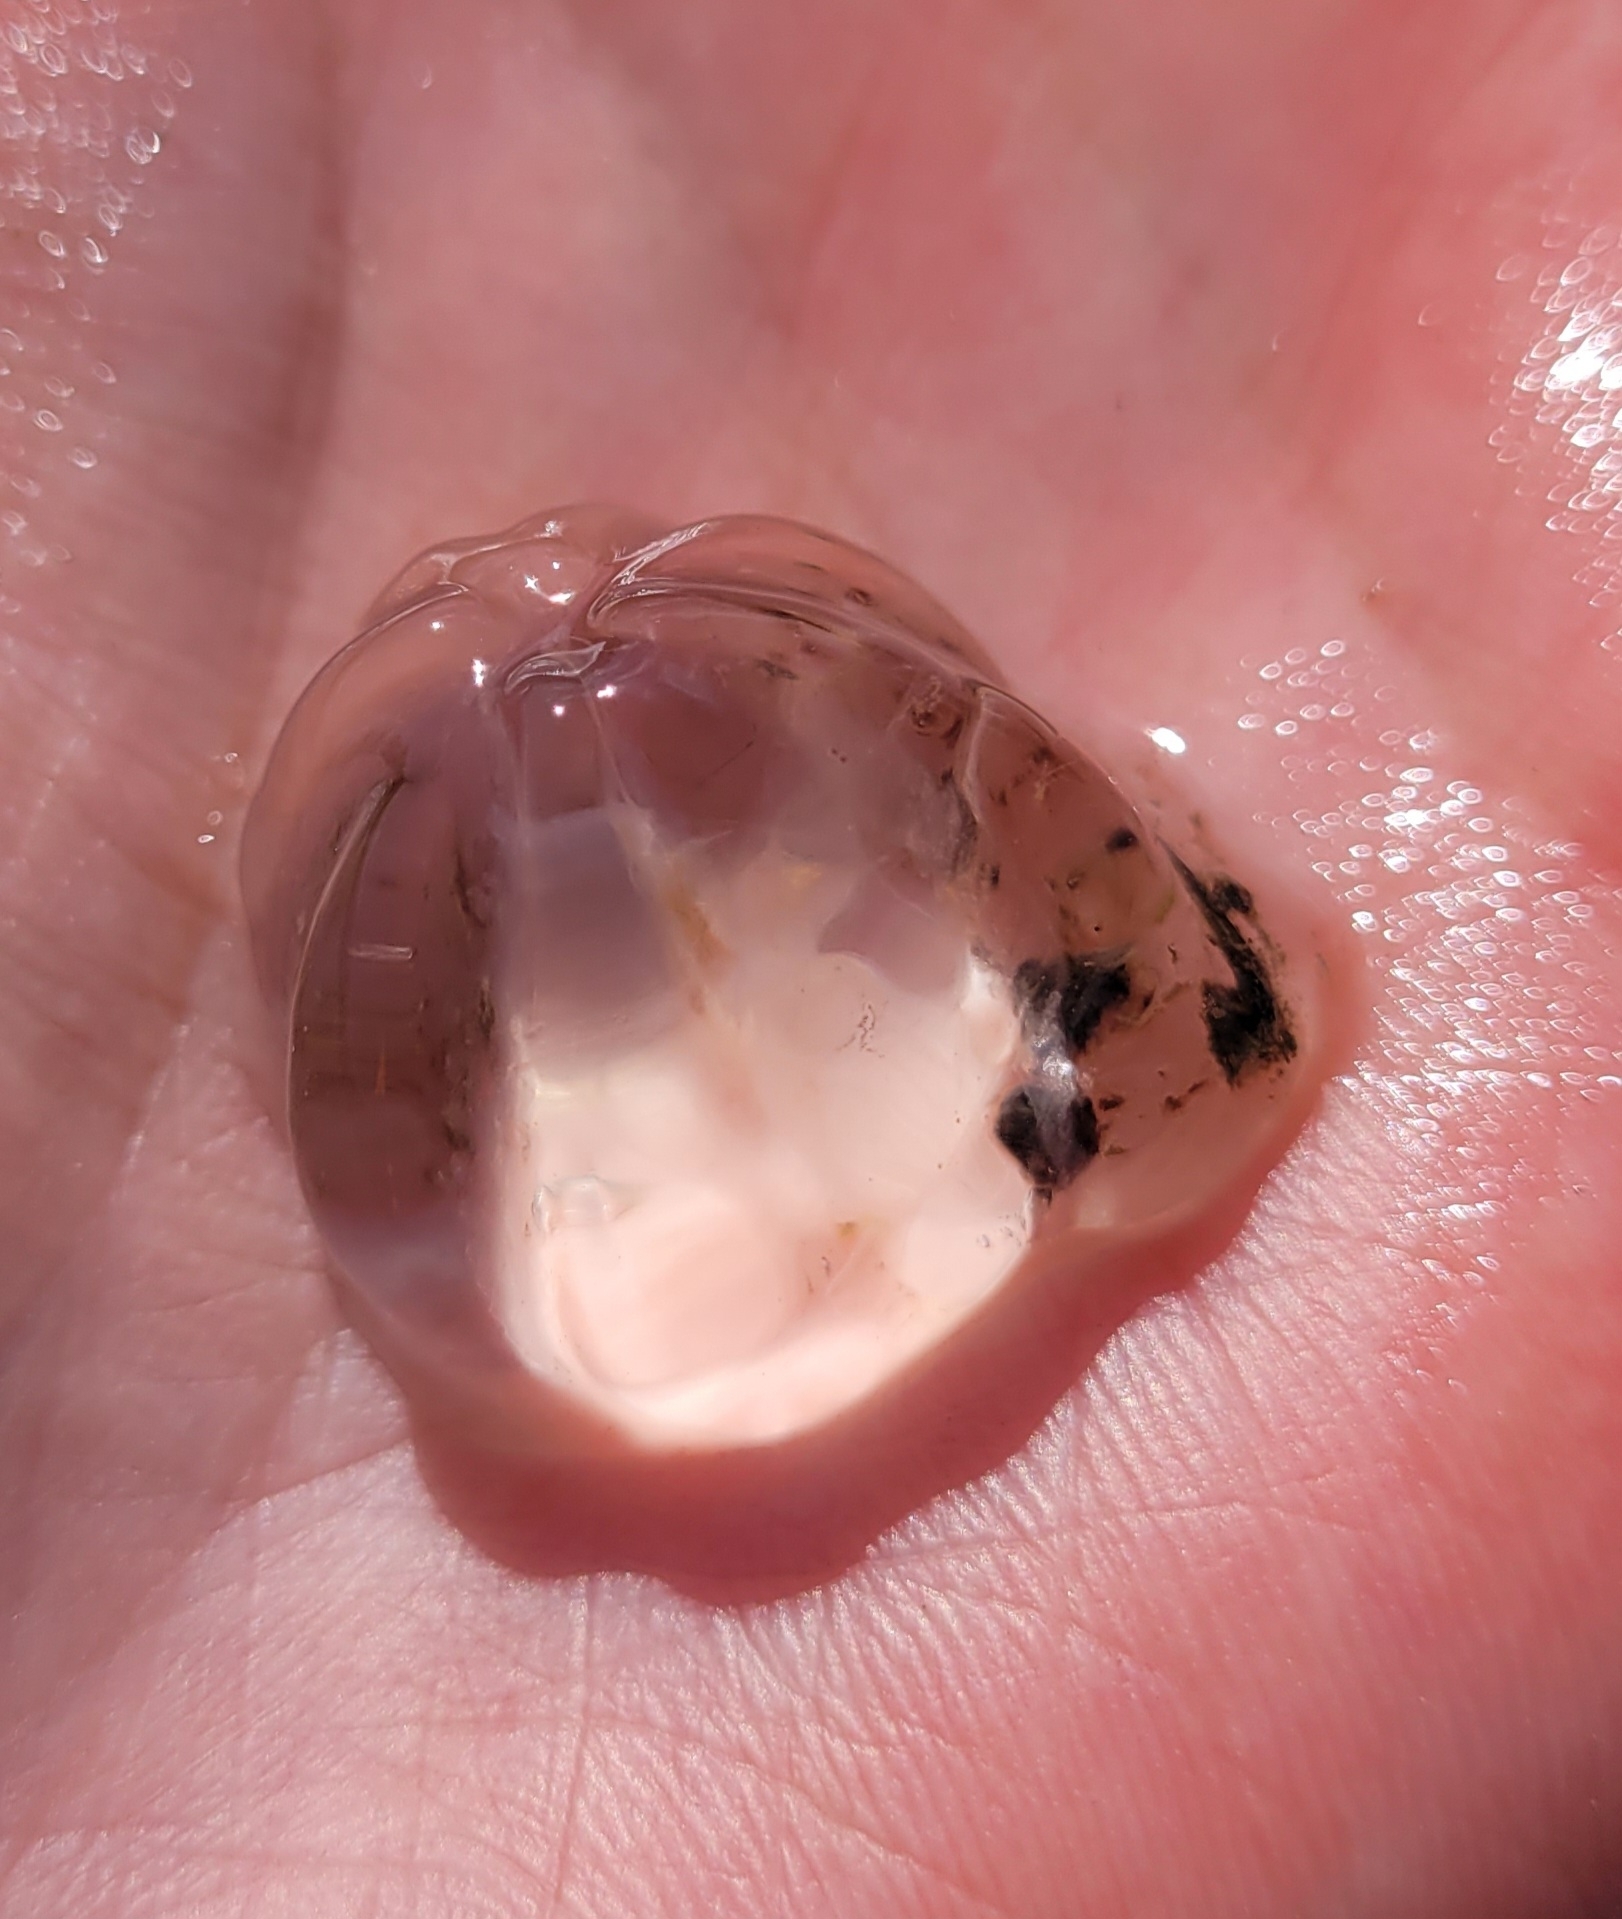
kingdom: Animalia
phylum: Ctenophora
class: Tentaculata
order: Cydippida
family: Pleurobrachiidae
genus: Pleurobrachia
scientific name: Pleurobrachia pileus
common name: Sea gooseberry
